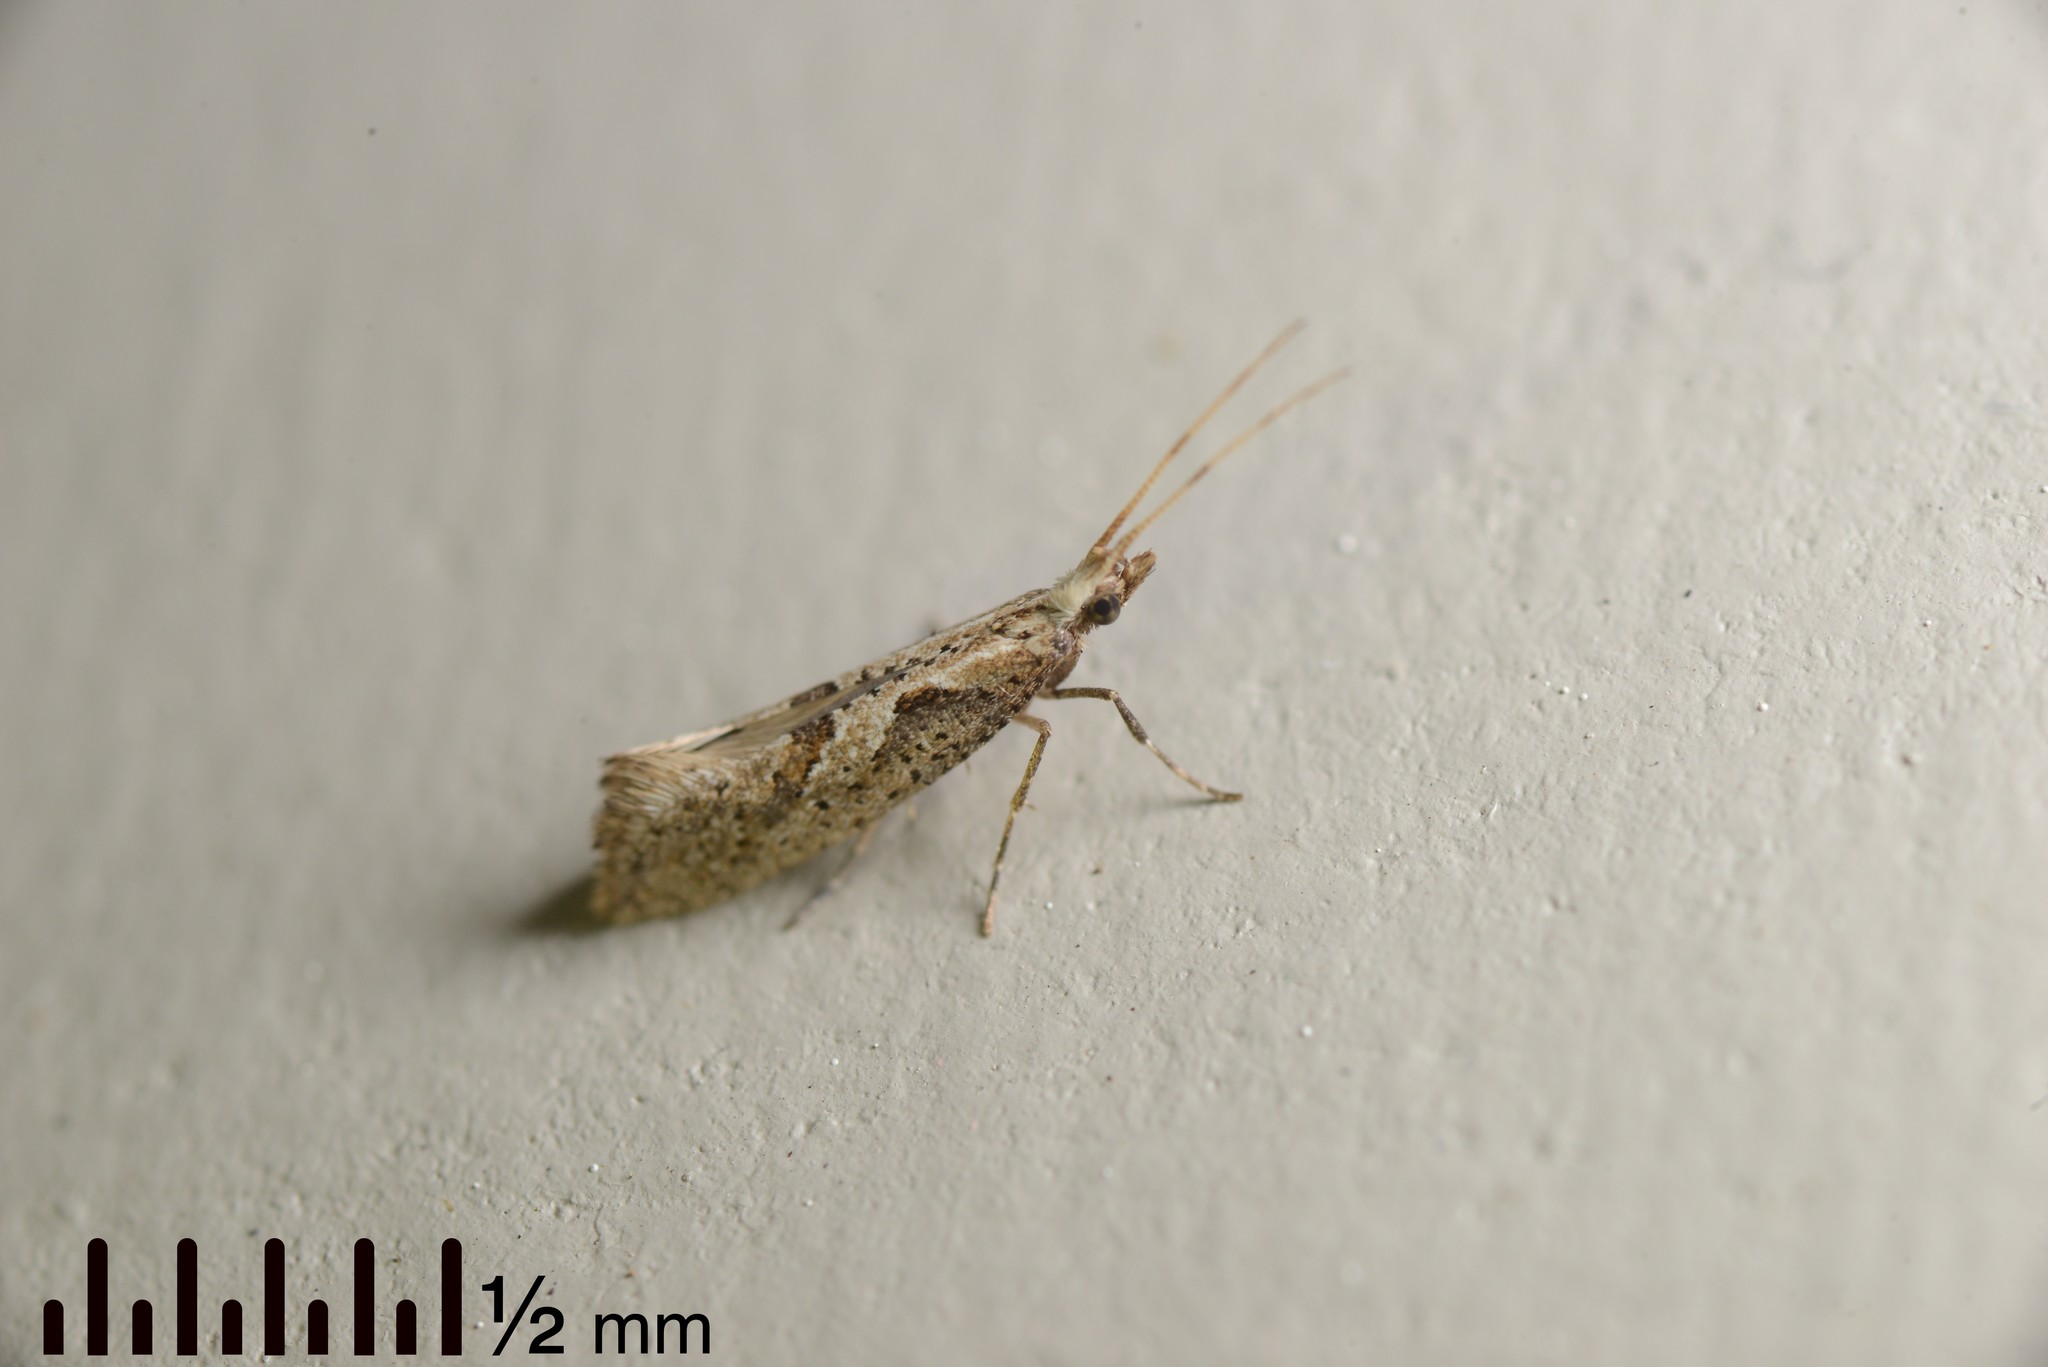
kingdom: Animalia
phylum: Arthropoda
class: Insecta
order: Lepidoptera
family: Plutellidae
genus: Leuroperna
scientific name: Leuroperna sera
